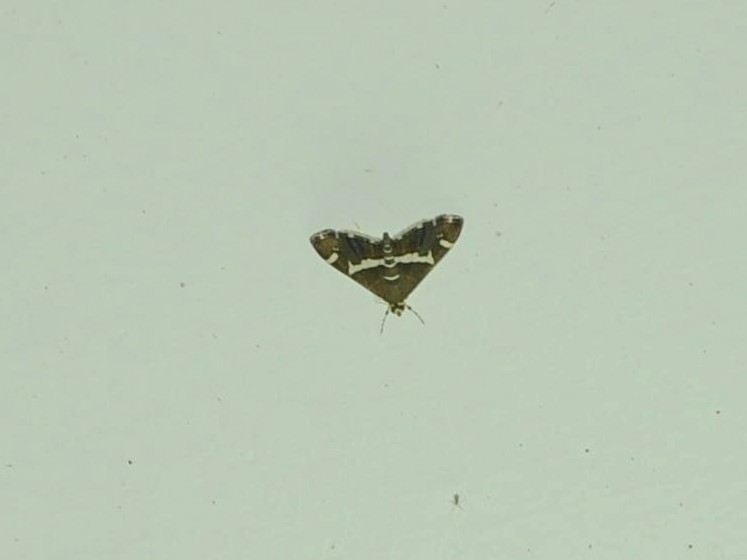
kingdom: Animalia
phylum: Arthropoda
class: Insecta
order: Lepidoptera
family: Crambidae
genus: Spoladea
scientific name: Spoladea recurvalis
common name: Beet webworm moth
